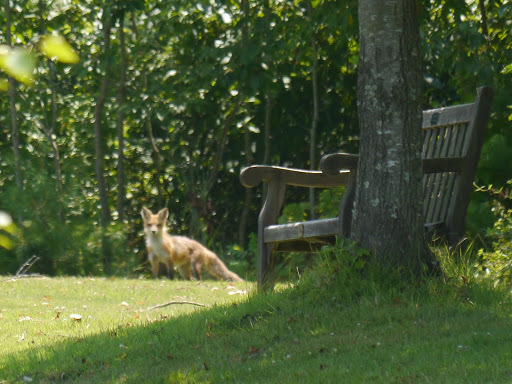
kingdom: Animalia
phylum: Chordata
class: Mammalia
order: Carnivora
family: Canidae
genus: Vulpes
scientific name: Vulpes vulpes
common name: Red fox
